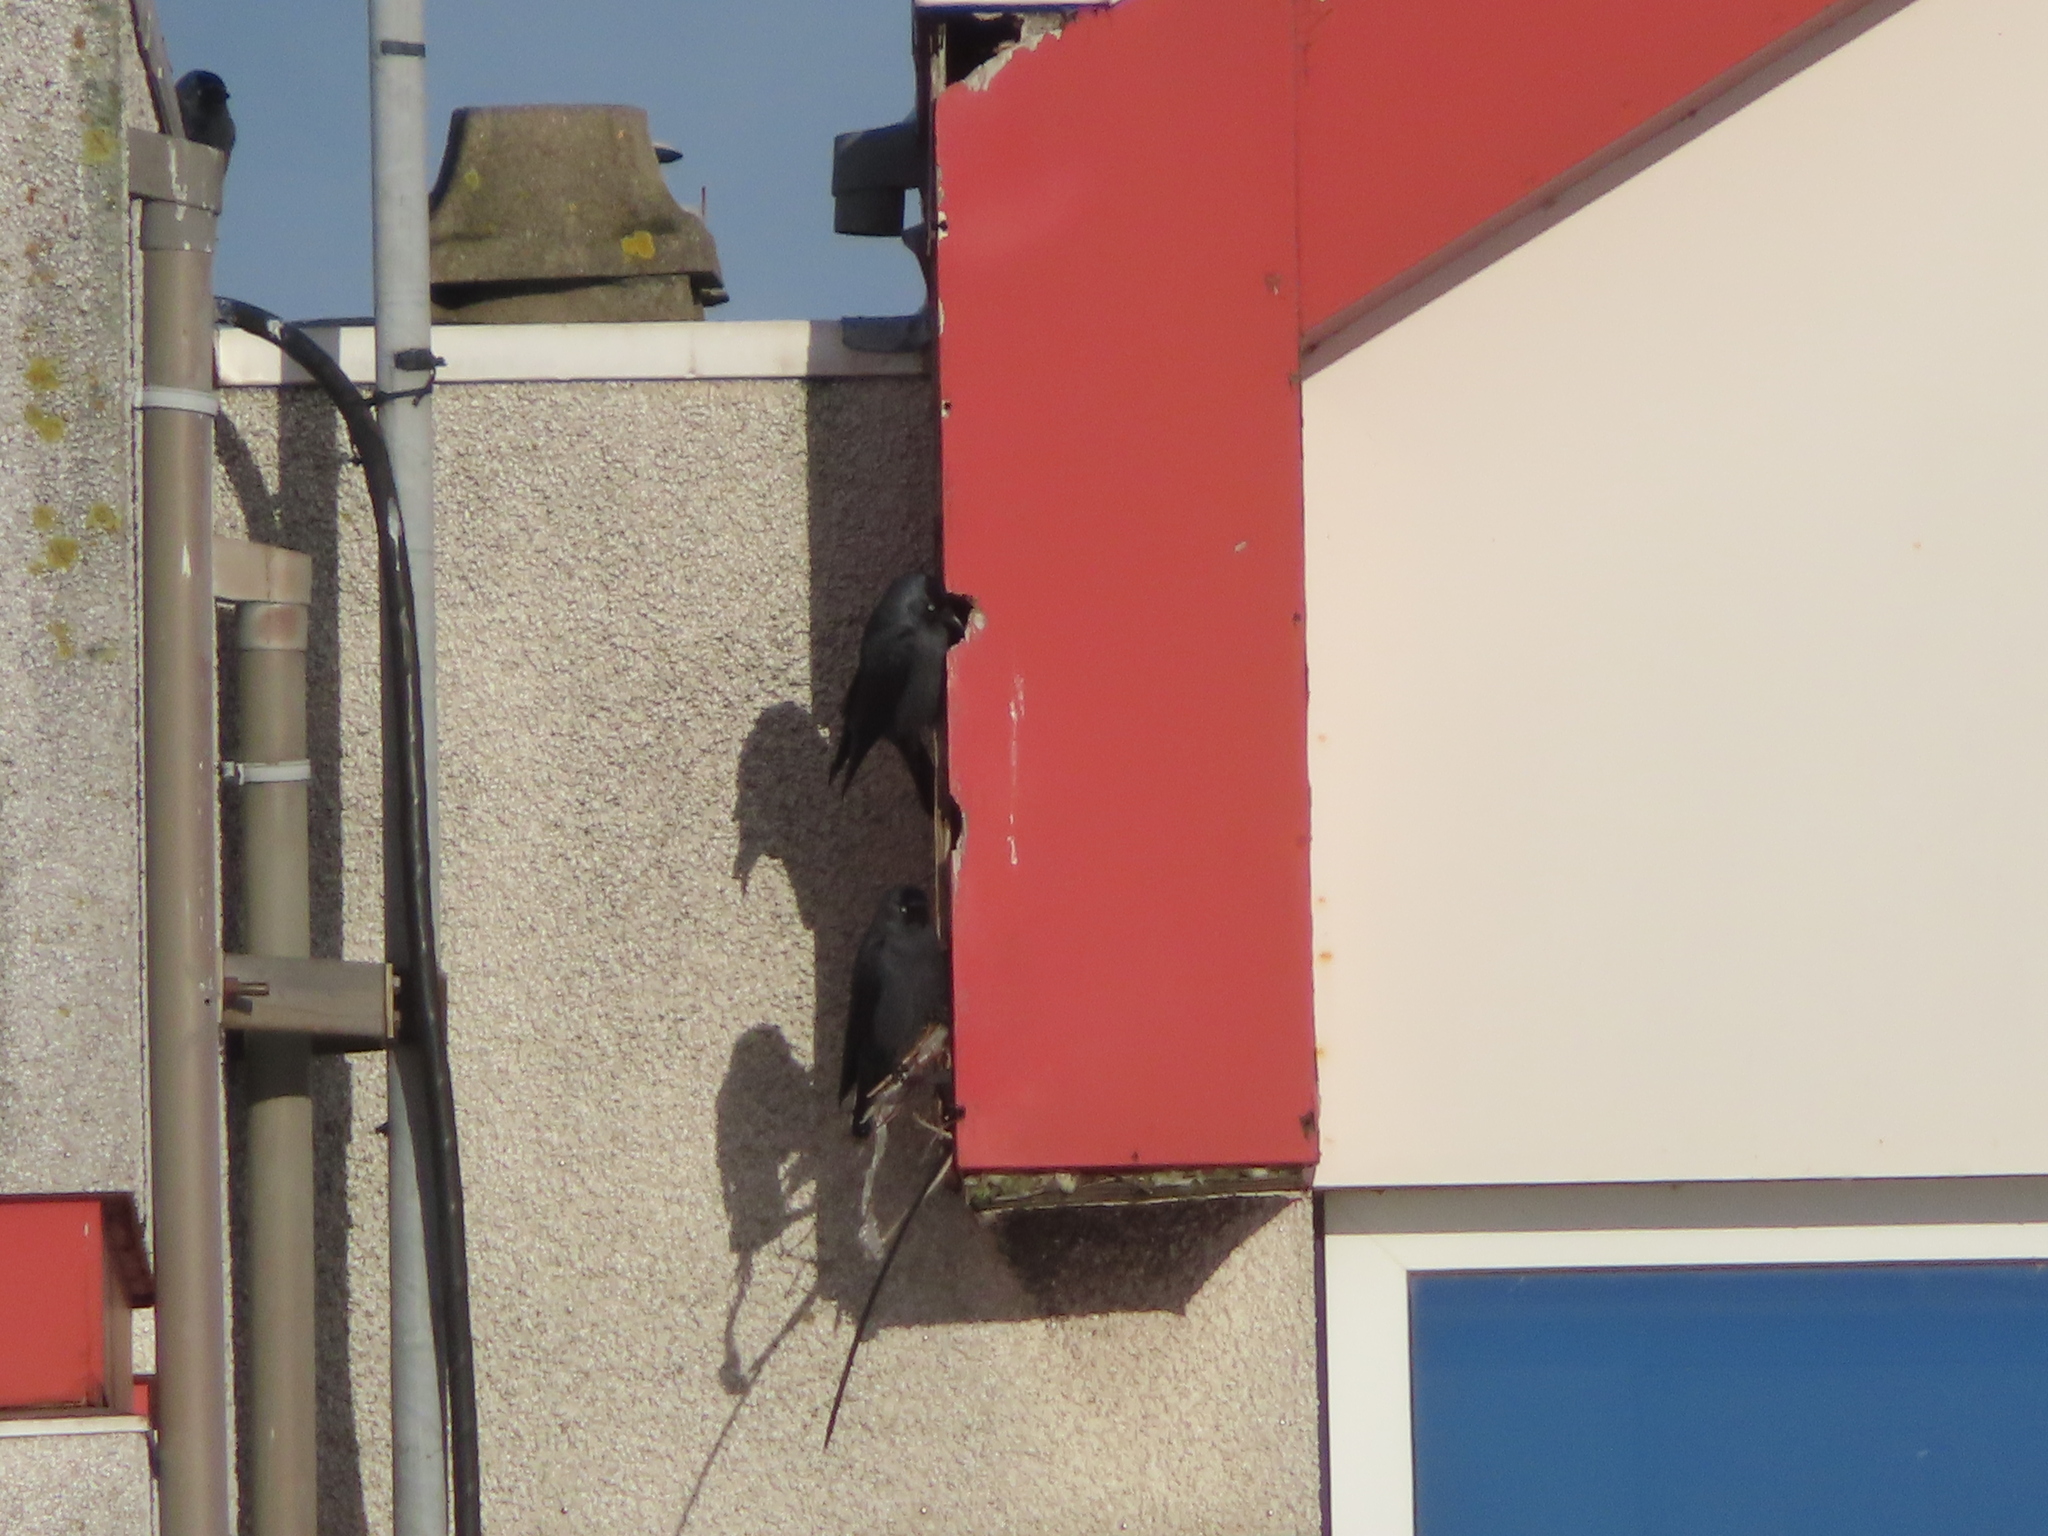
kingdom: Animalia
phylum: Chordata
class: Aves
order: Passeriformes
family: Corvidae
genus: Coloeus
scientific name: Coloeus monedula
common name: Western jackdaw
